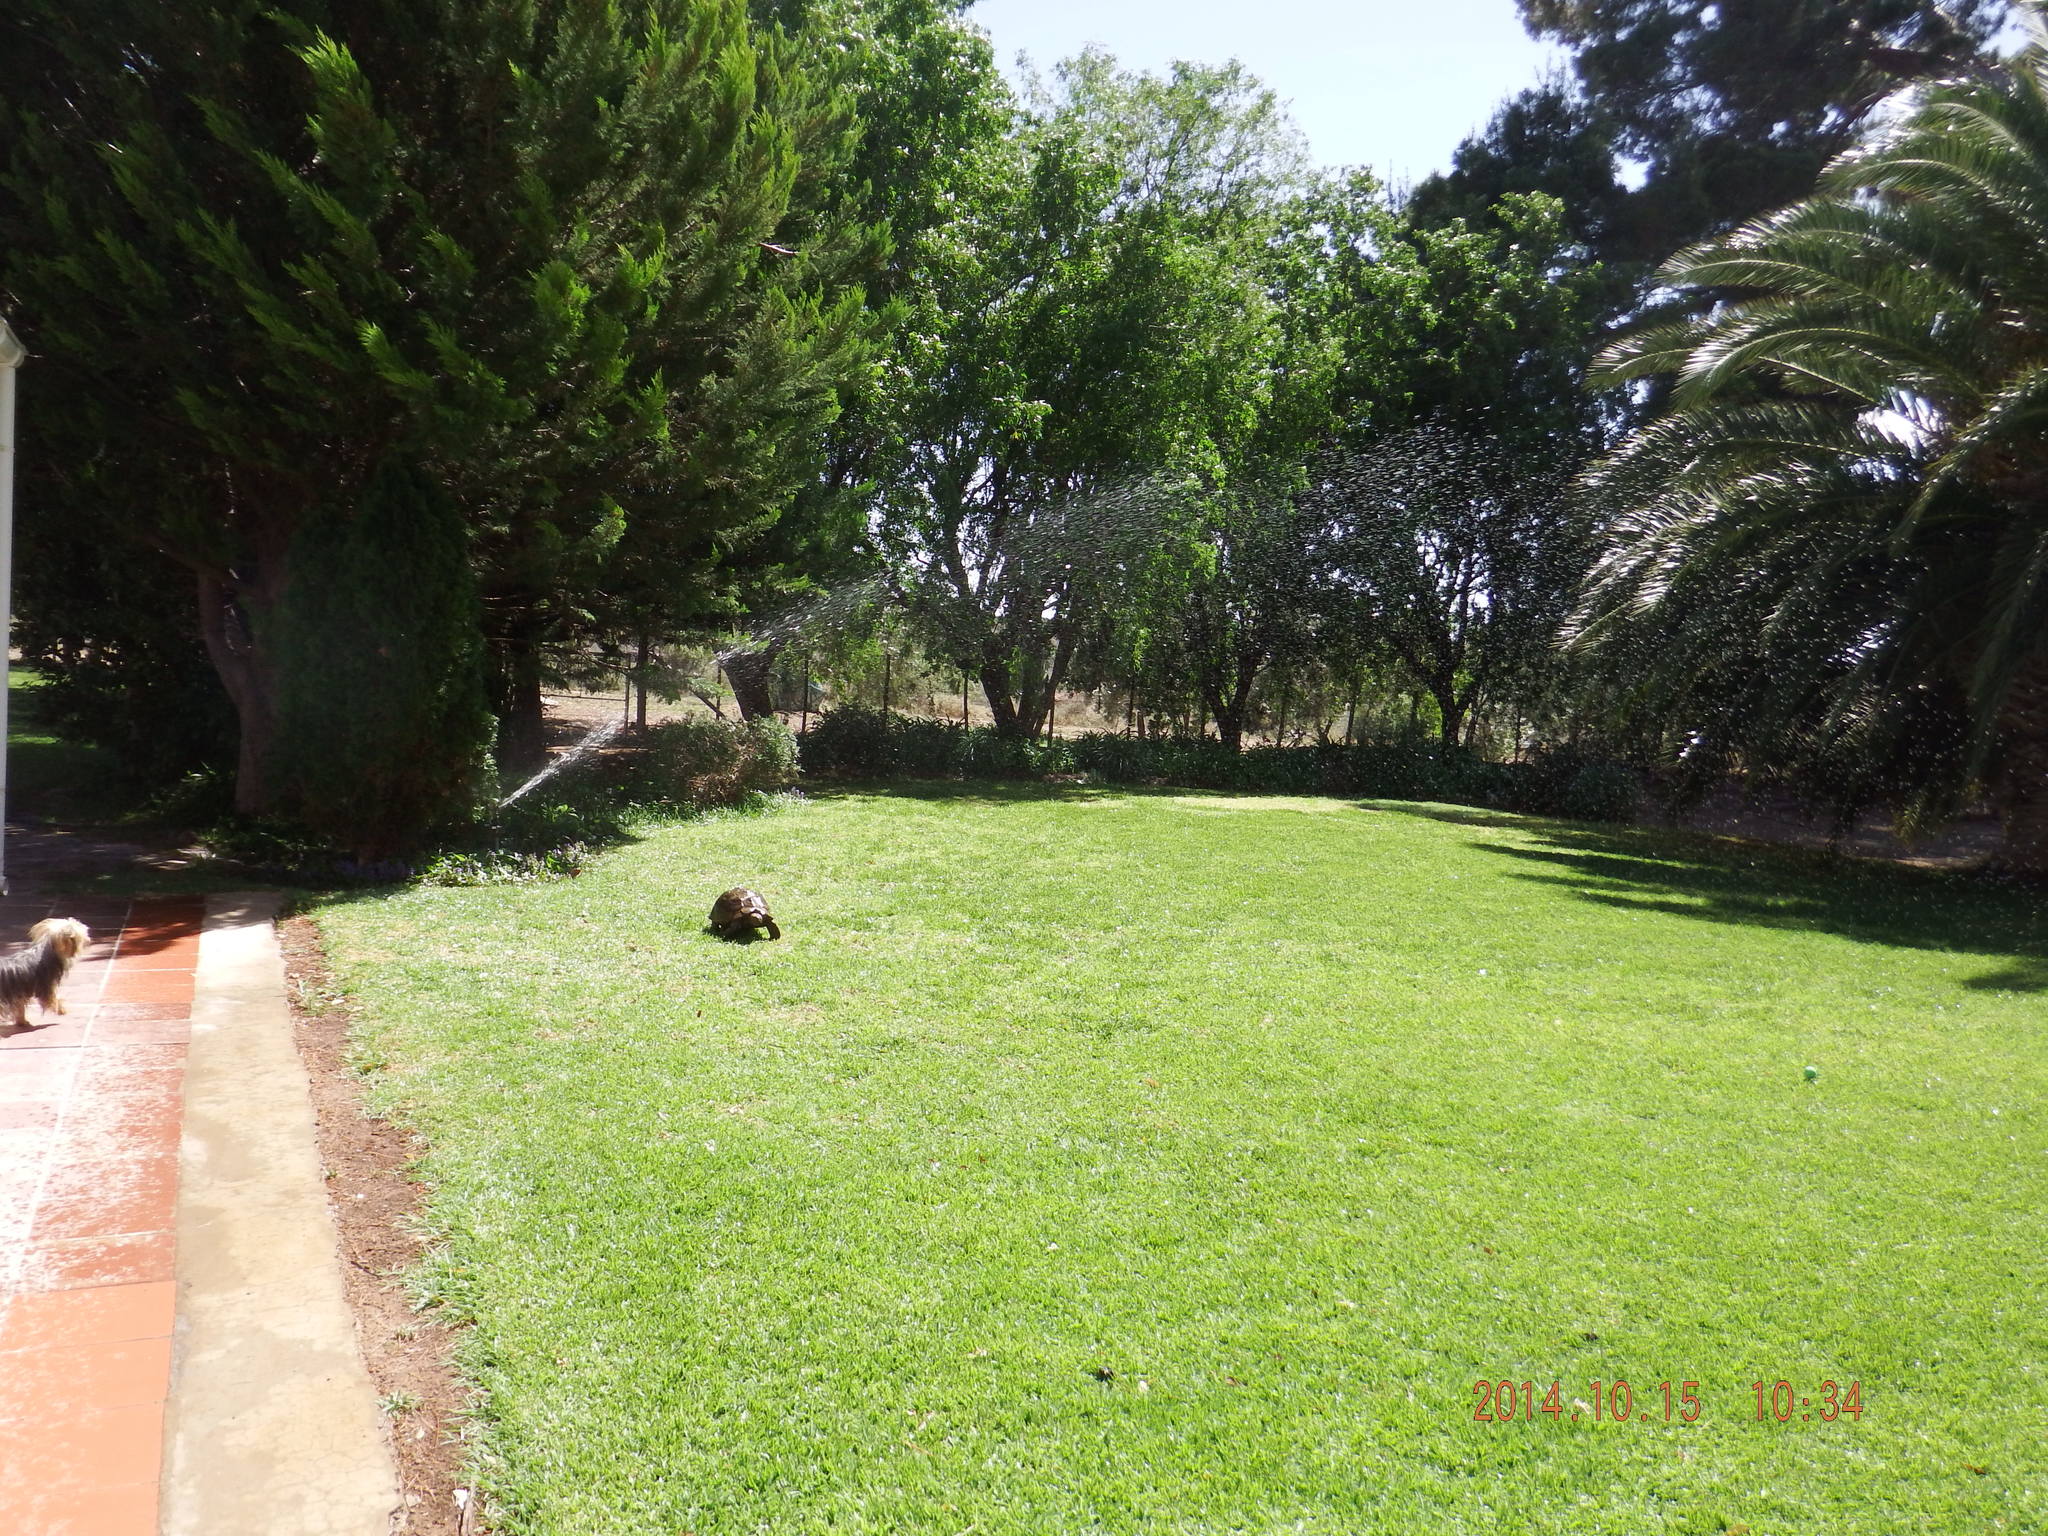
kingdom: Animalia
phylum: Chordata
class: Testudines
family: Testudinidae
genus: Stigmochelys
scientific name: Stigmochelys pardalis
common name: Leopard tortoise
